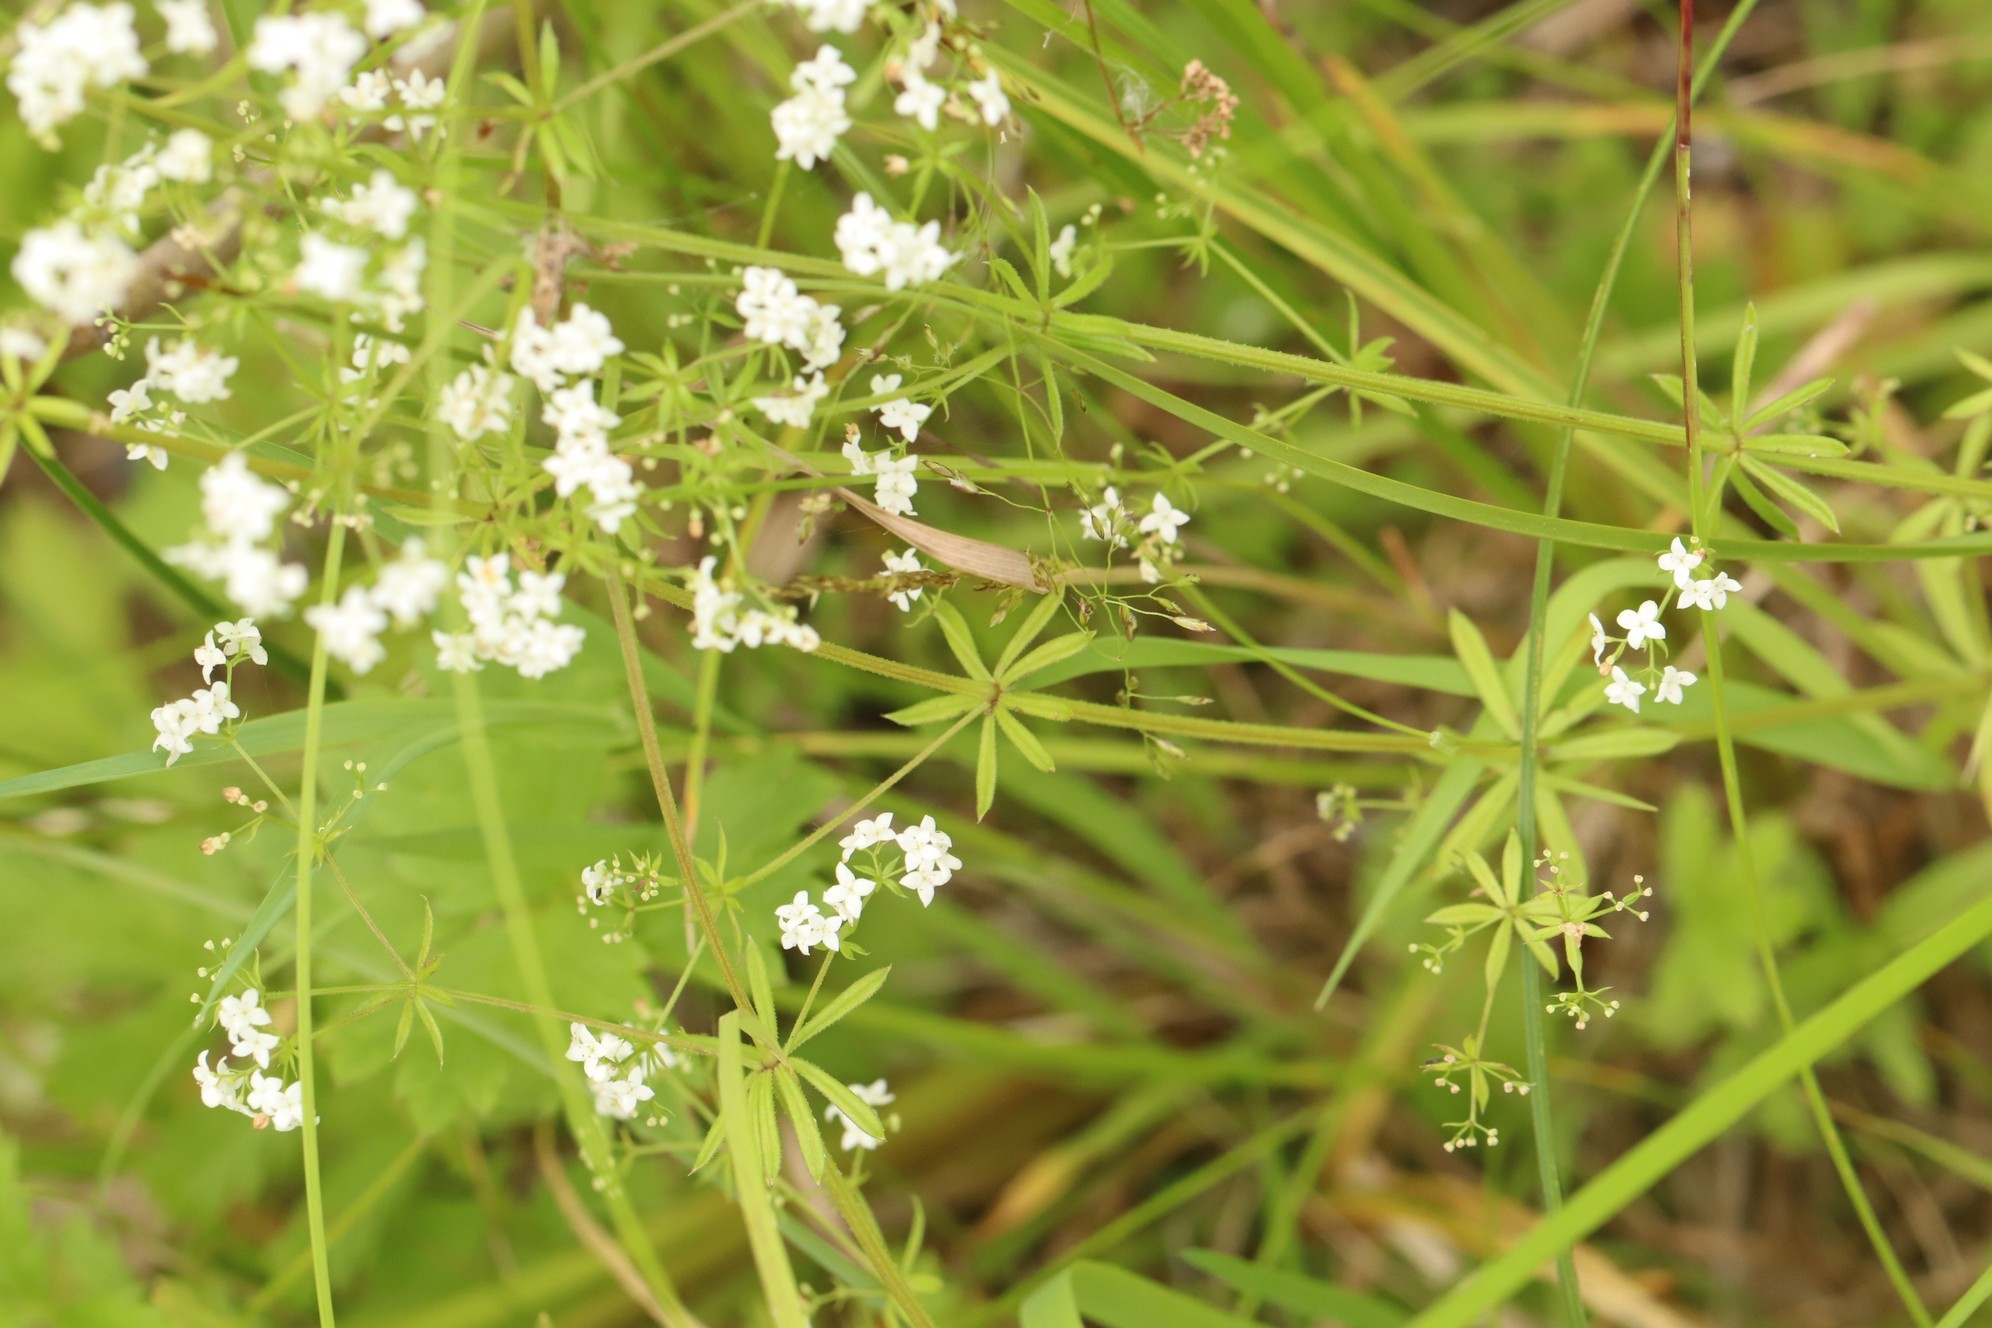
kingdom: Plantae
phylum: Tracheophyta
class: Magnoliopsida
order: Gentianales
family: Rubiaceae
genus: Galium
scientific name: Galium uliginosum
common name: Fen bedstraw
